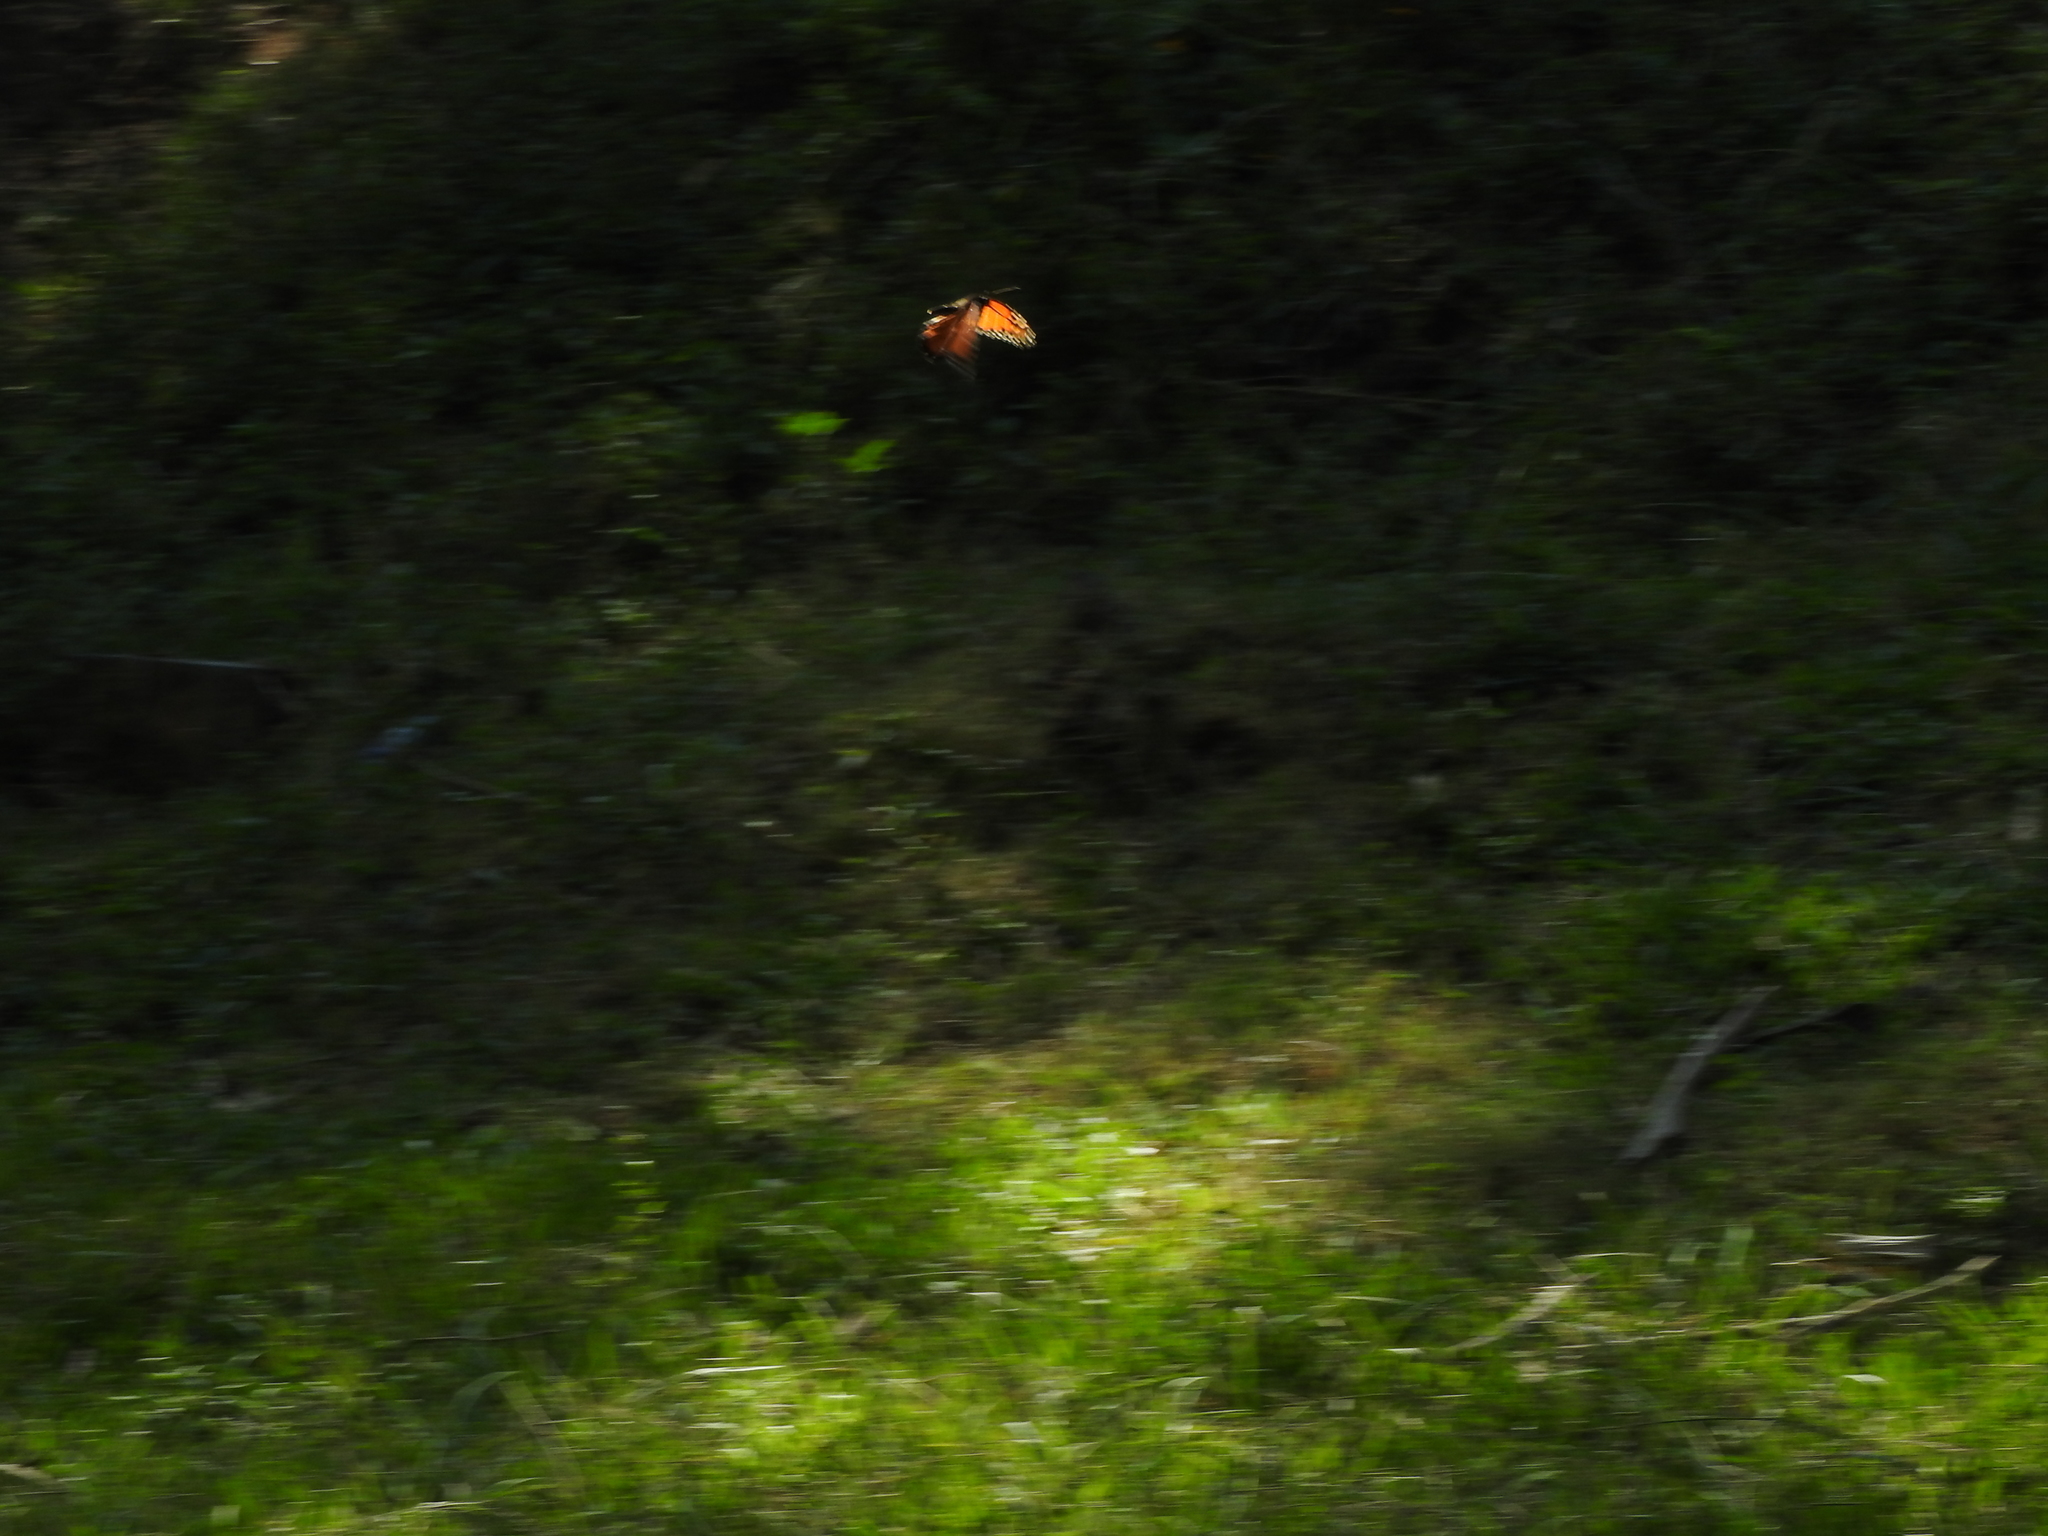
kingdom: Animalia
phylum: Arthropoda
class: Insecta
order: Lepidoptera
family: Nymphalidae
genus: Danaus
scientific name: Danaus plexippus
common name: Monarch
